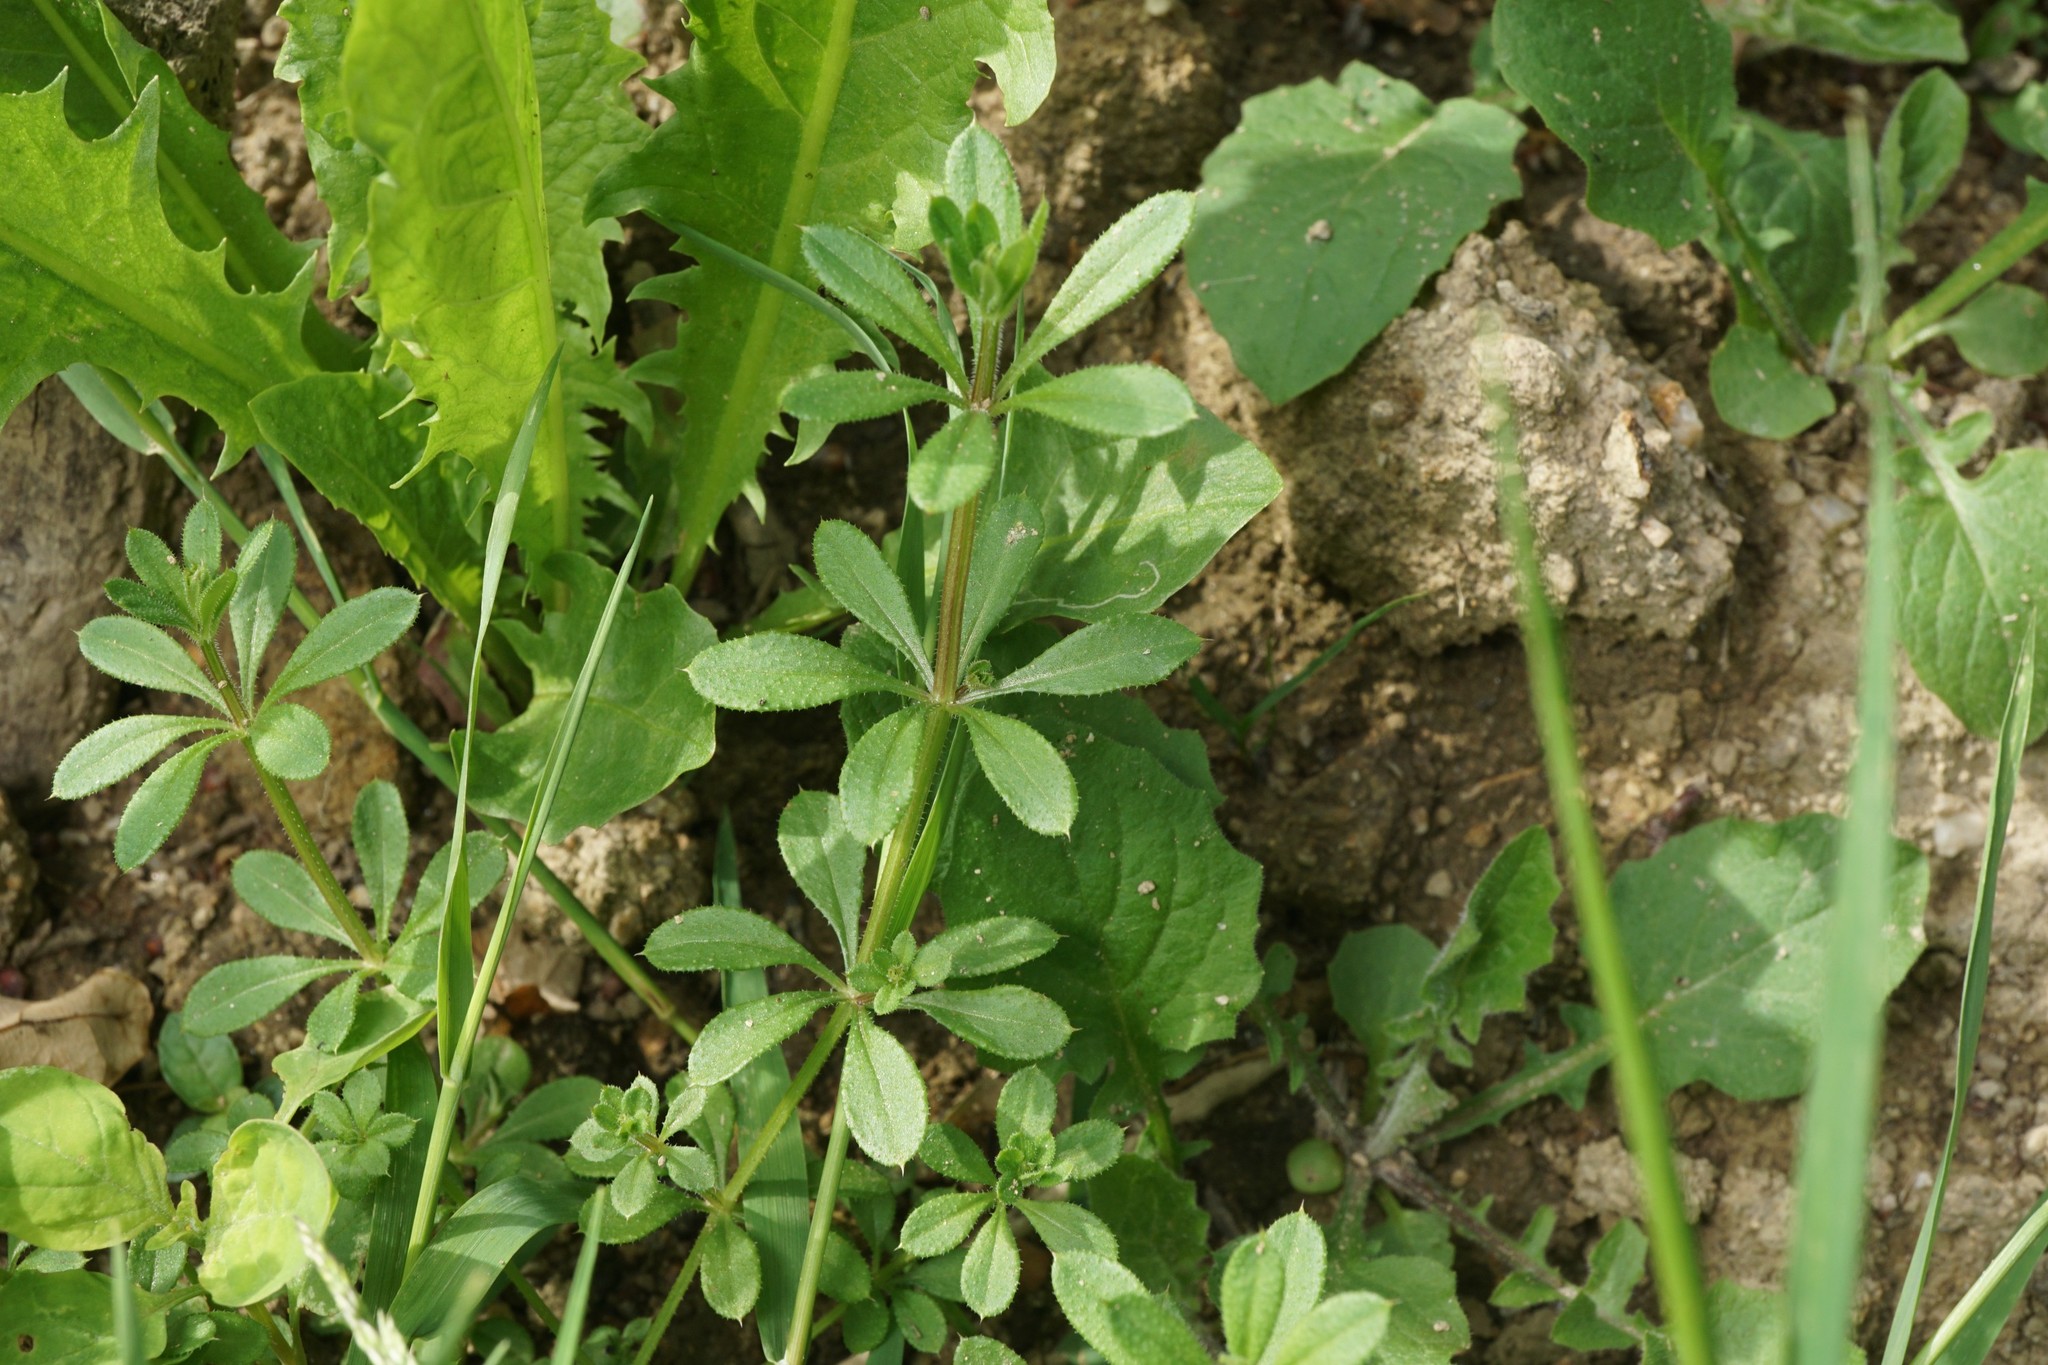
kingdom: Plantae
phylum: Tracheophyta
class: Magnoliopsida
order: Gentianales
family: Rubiaceae
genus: Galium
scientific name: Galium aparine
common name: Cleavers
